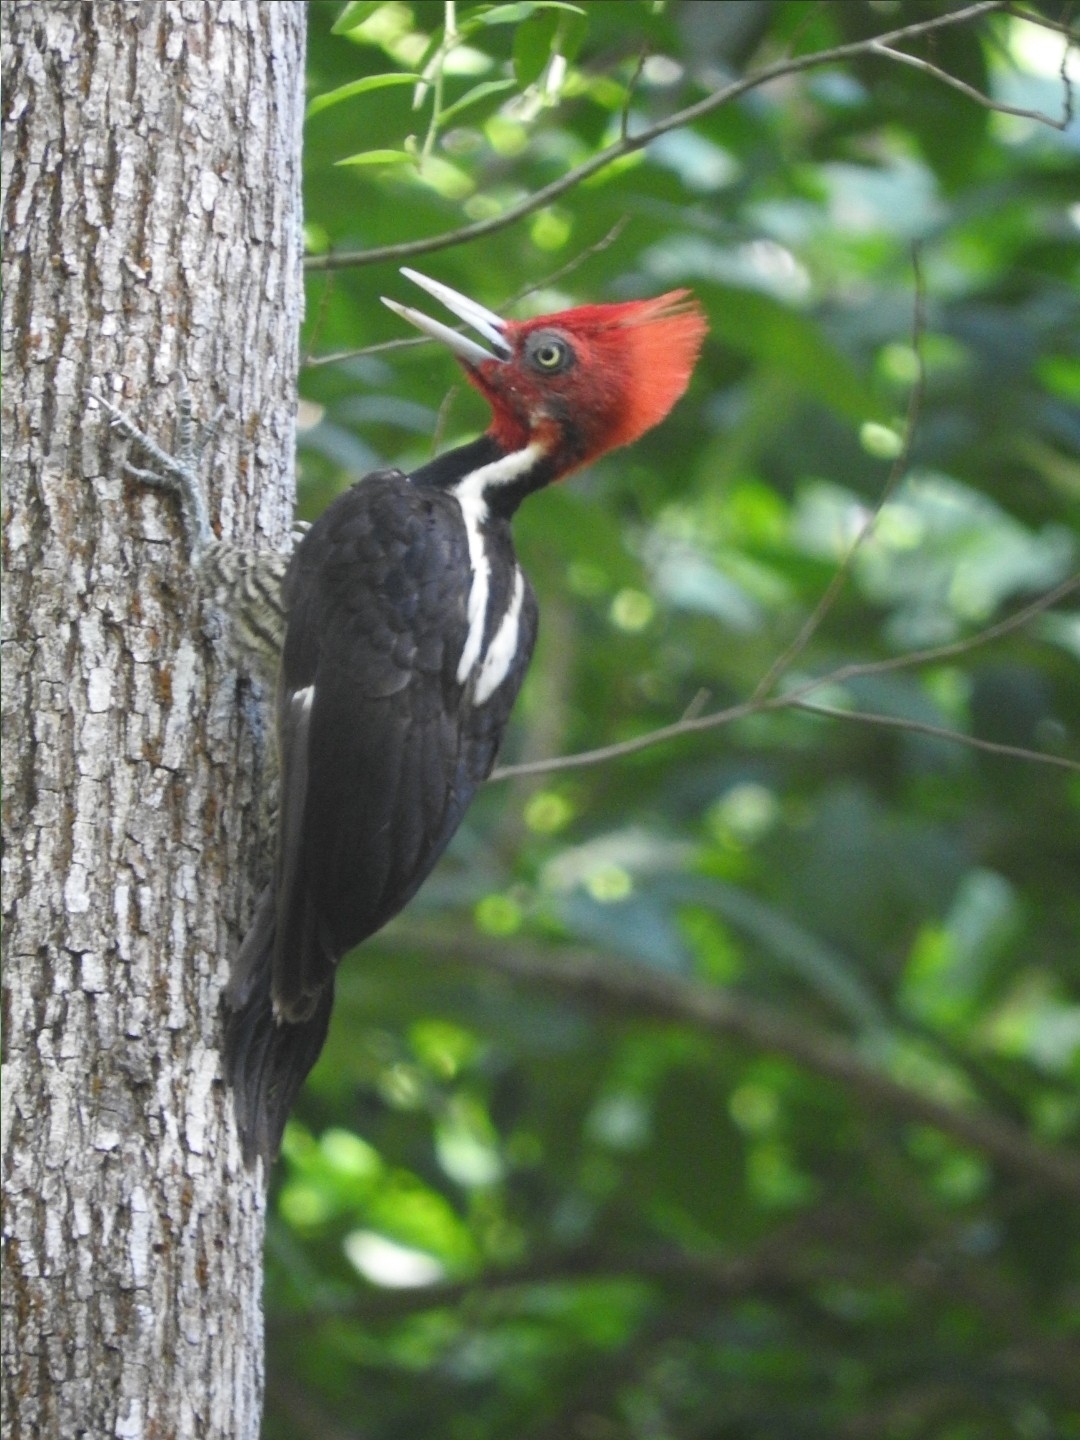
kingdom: Animalia
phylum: Chordata
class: Aves
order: Piciformes
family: Picidae
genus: Campephilus
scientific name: Campephilus guatemalensis
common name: Pale-billed woodpecker
